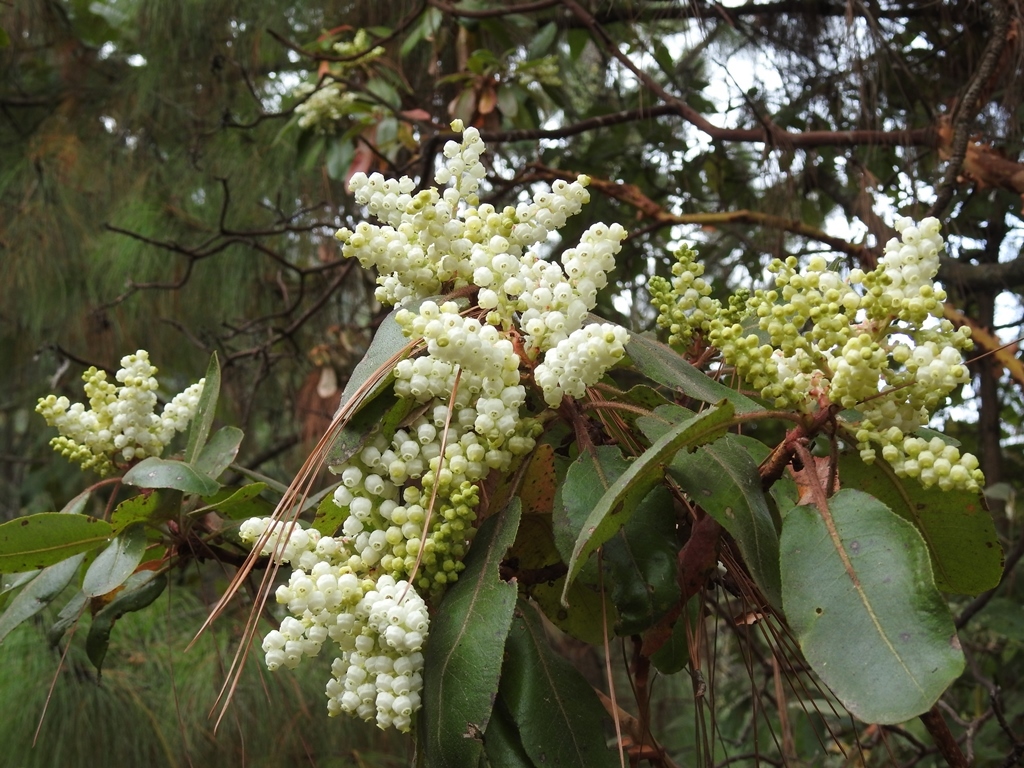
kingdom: Plantae
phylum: Tracheophyta
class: Magnoliopsida
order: Ericales
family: Ericaceae
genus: Arbutus
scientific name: Arbutus xalapensis
